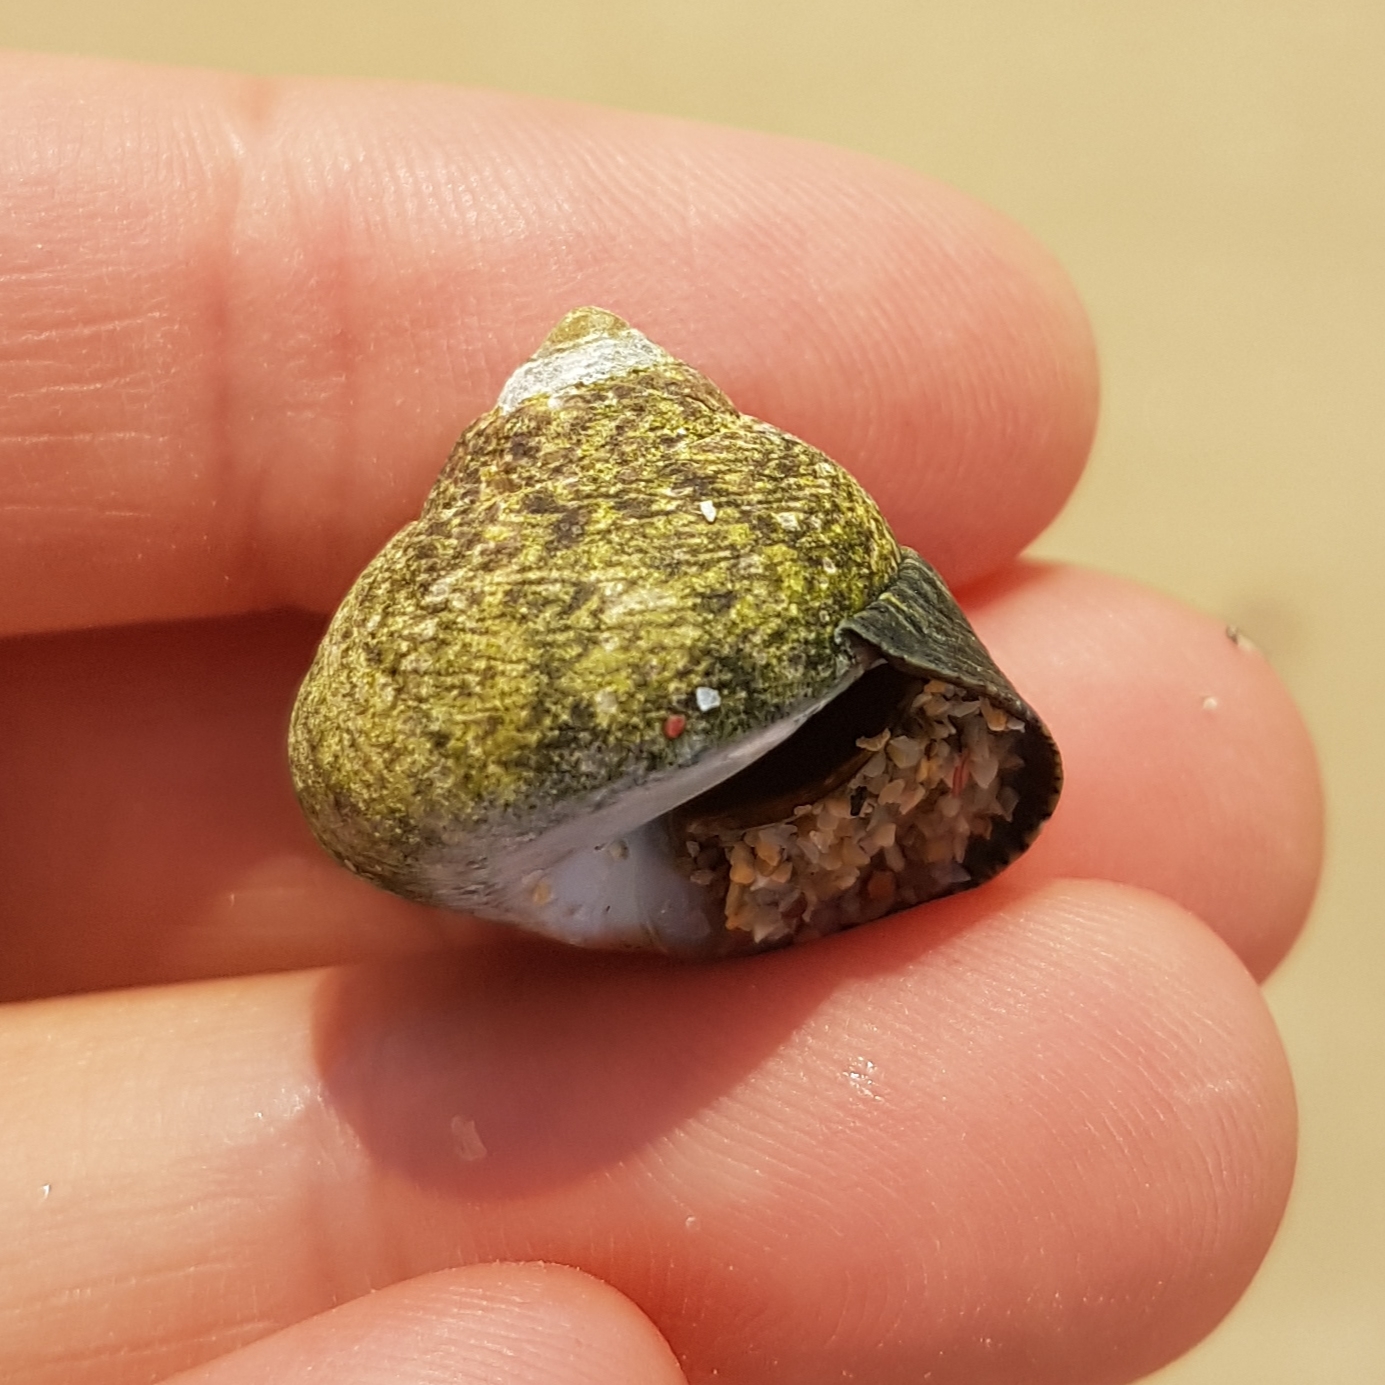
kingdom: Animalia
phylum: Mollusca
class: Gastropoda
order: Trochida
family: Trochidae
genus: Phorcus
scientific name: Phorcus lineatus
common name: Toothed top shell
